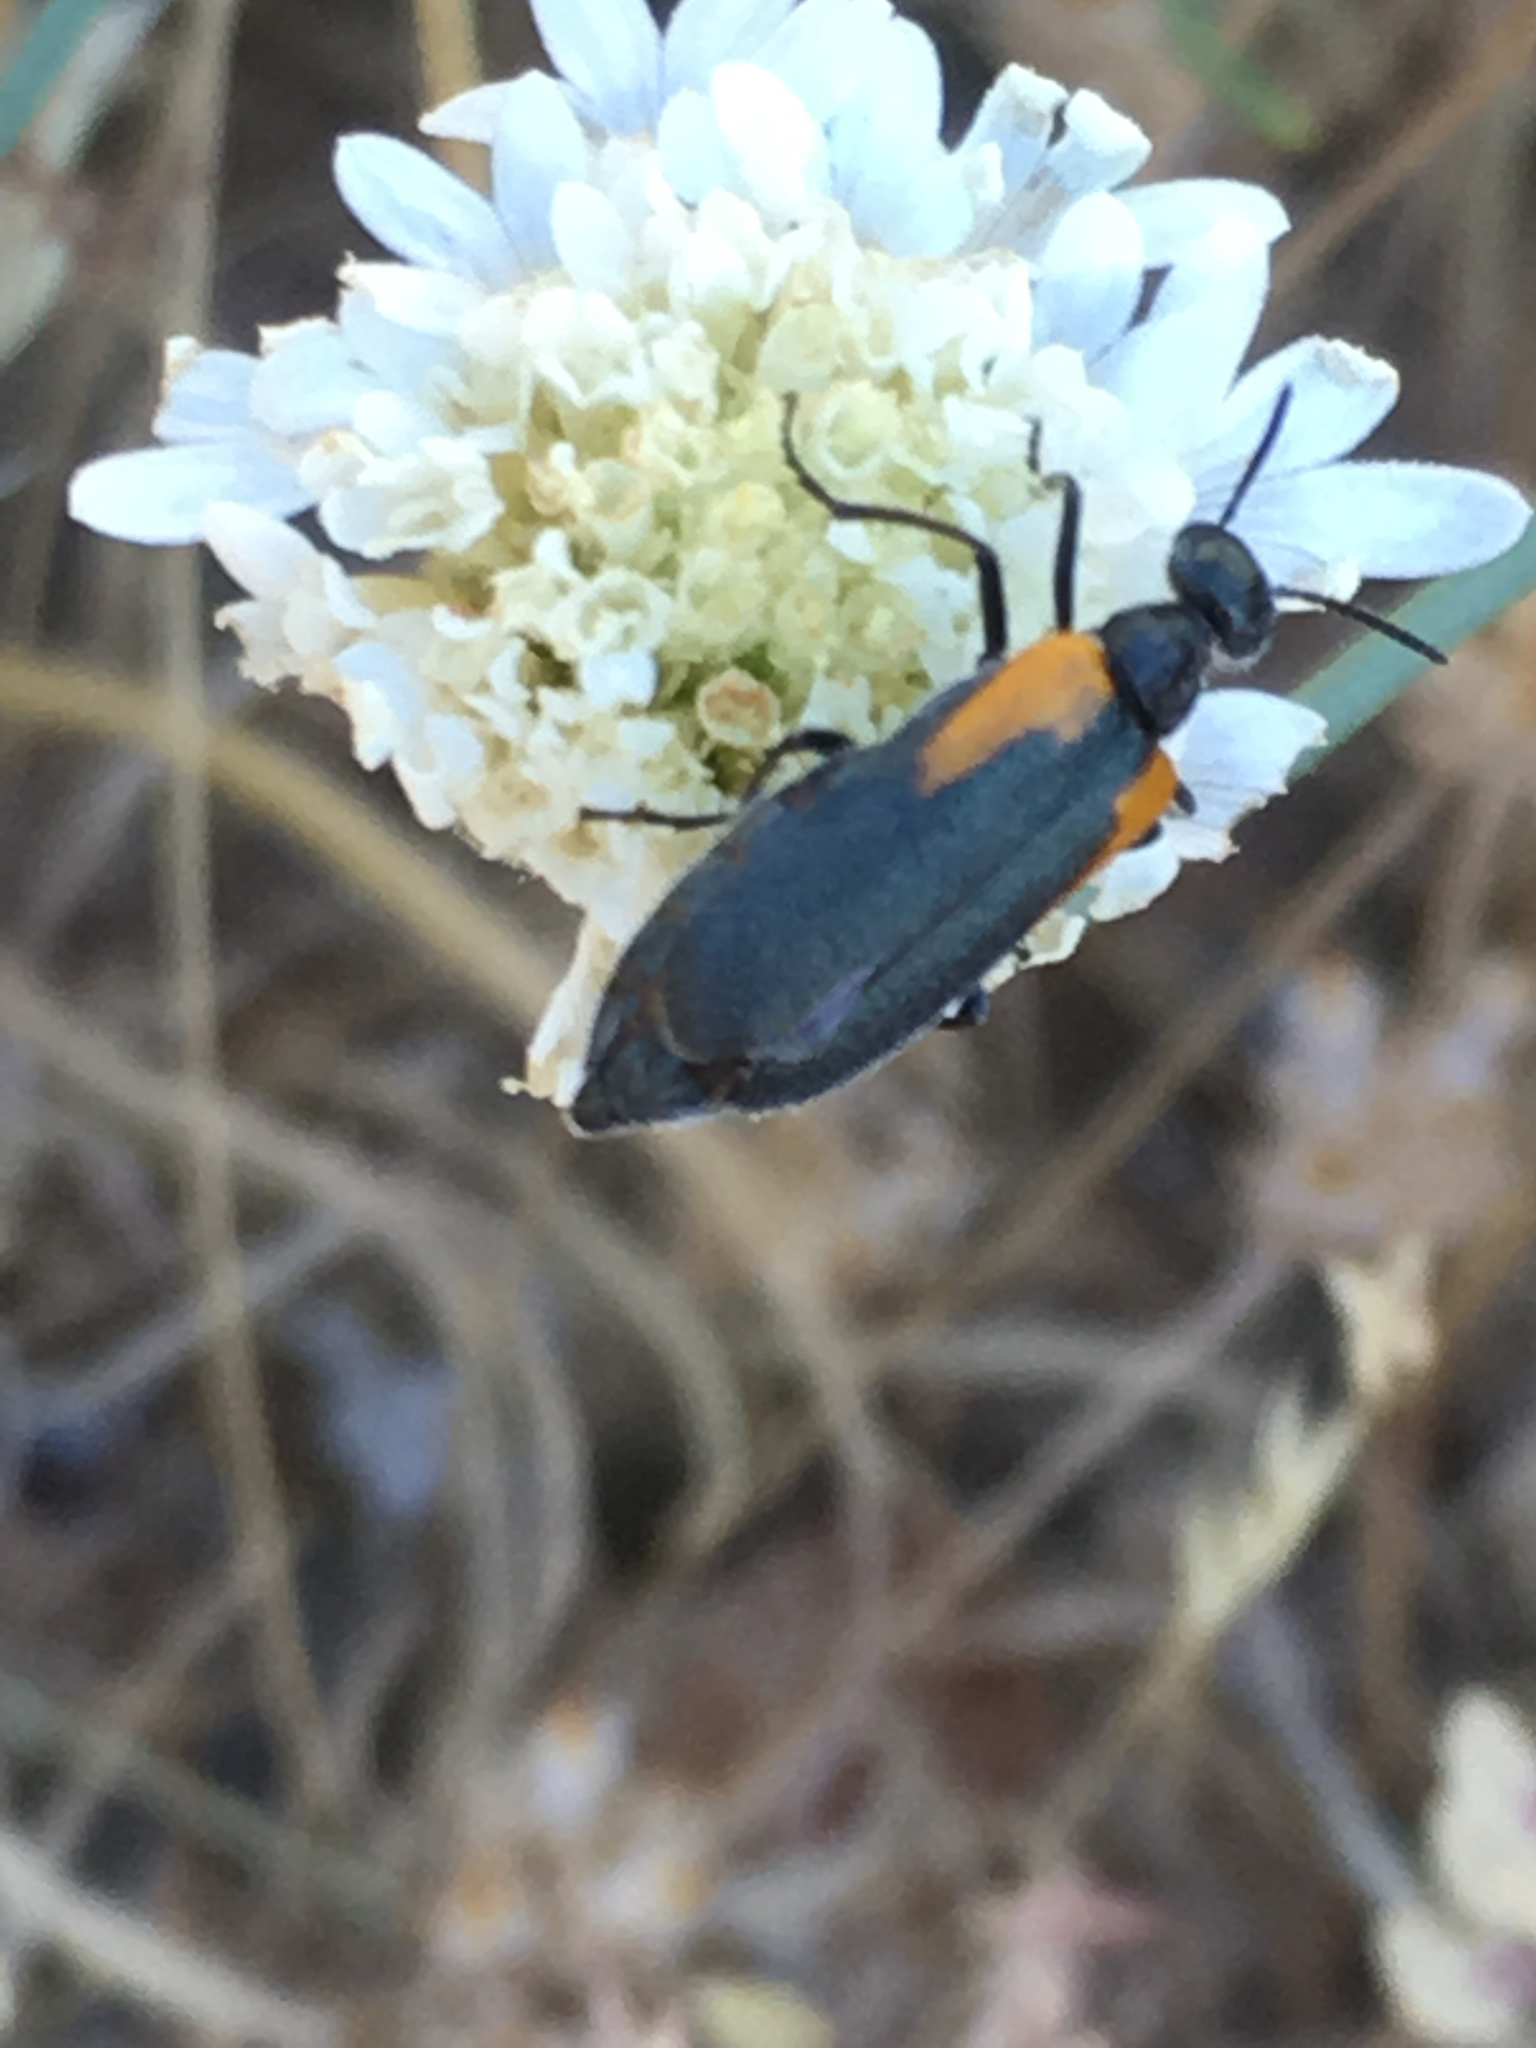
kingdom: Animalia
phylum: Arthropoda
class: Insecta
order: Coleoptera
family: Meloidae
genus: Eupompha
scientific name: Eupompha elegans
